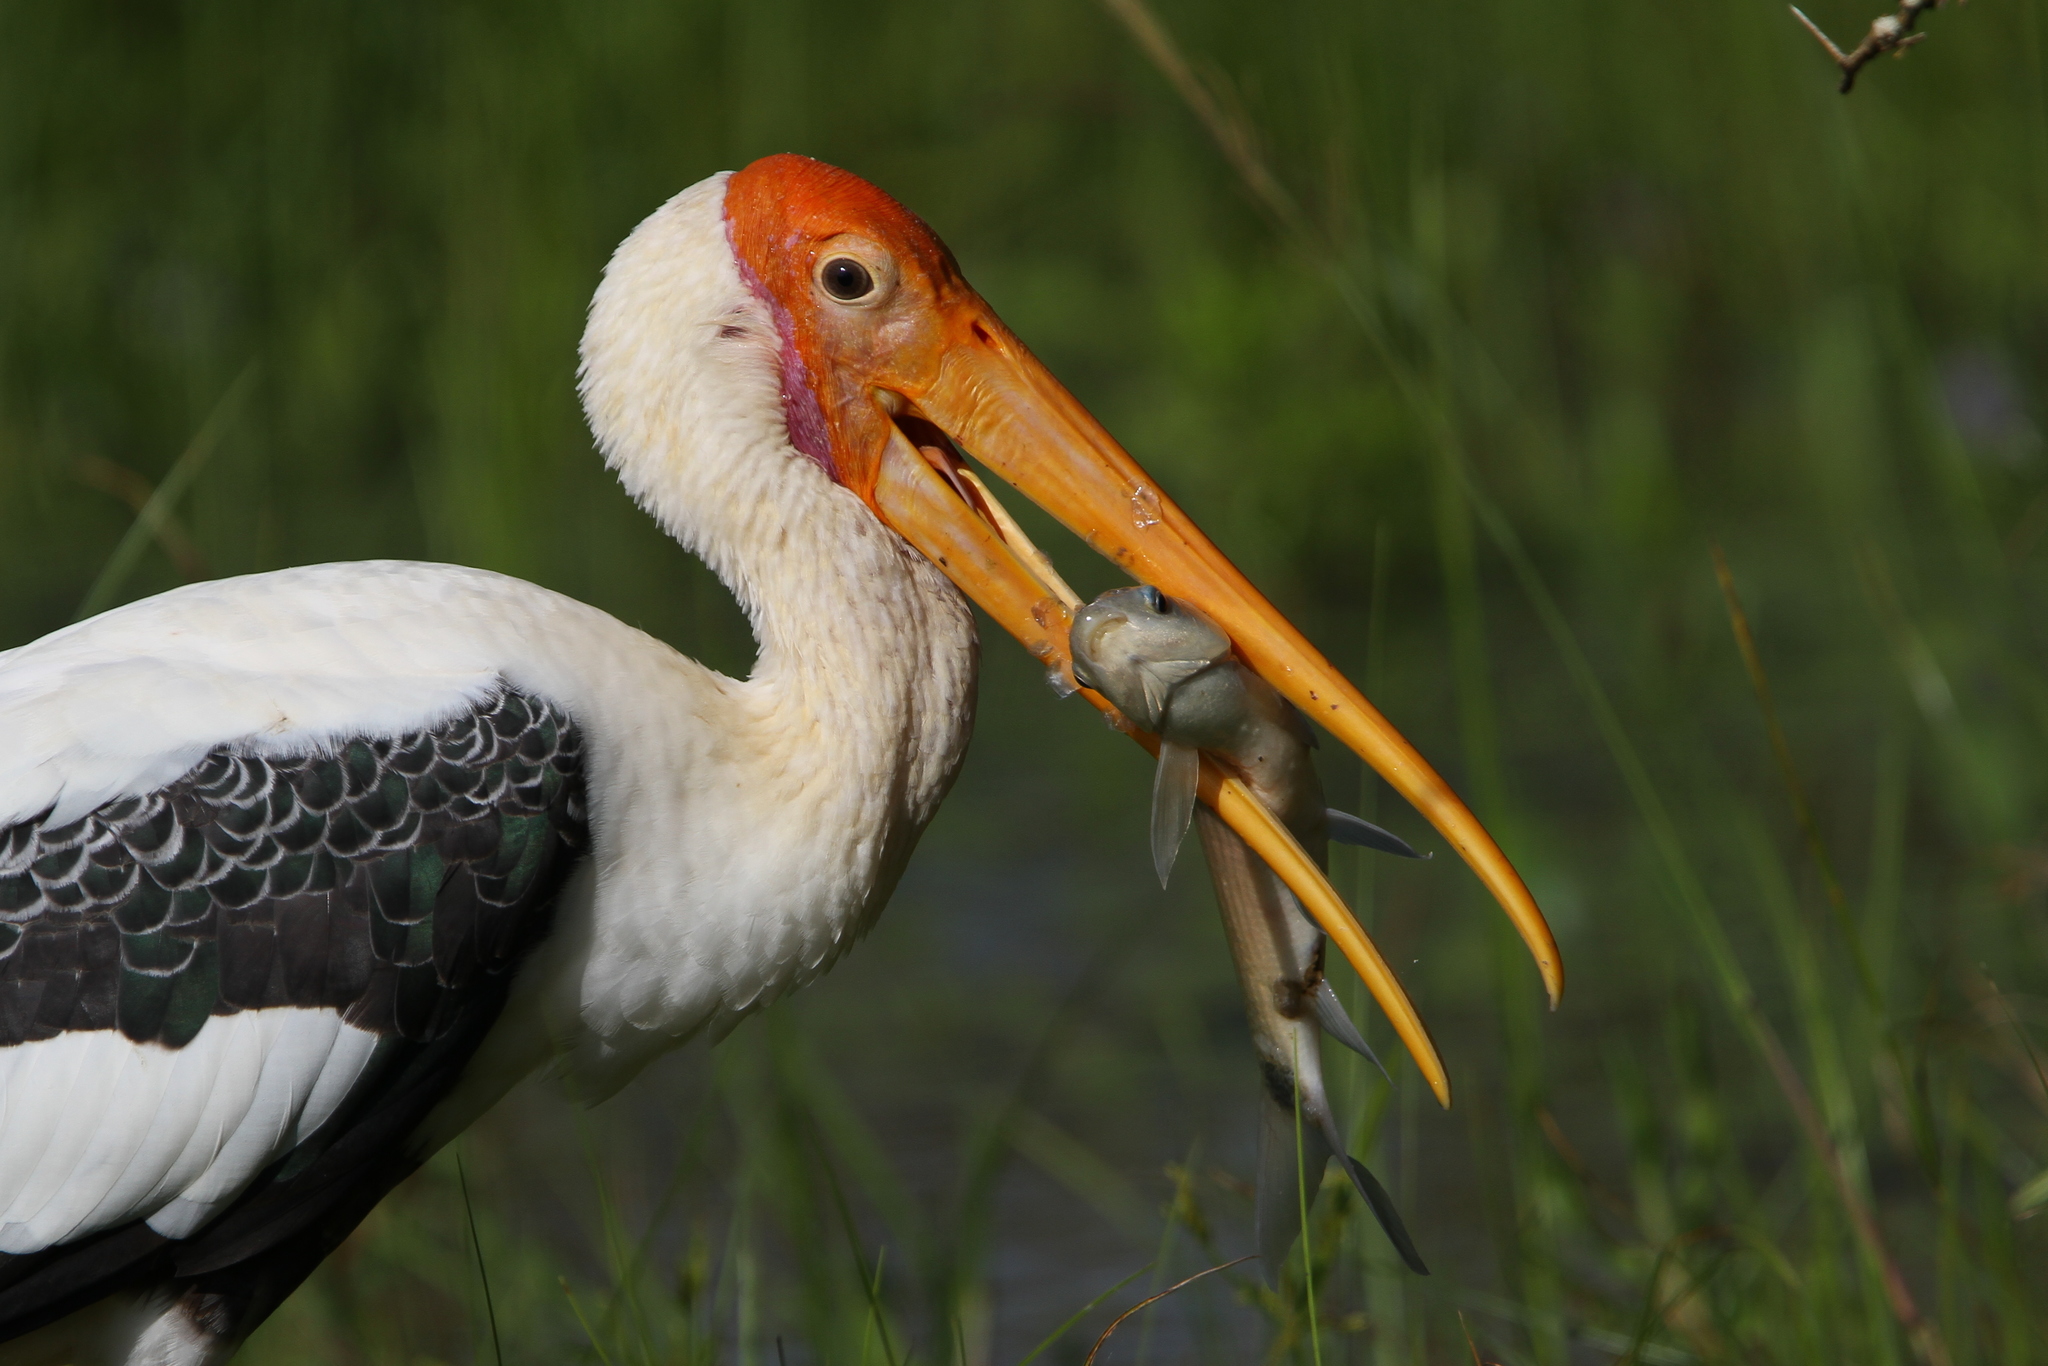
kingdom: Animalia
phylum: Chordata
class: Aves
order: Ciconiiformes
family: Ciconiidae
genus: Mycteria
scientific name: Mycteria leucocephala
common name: Painted stork
